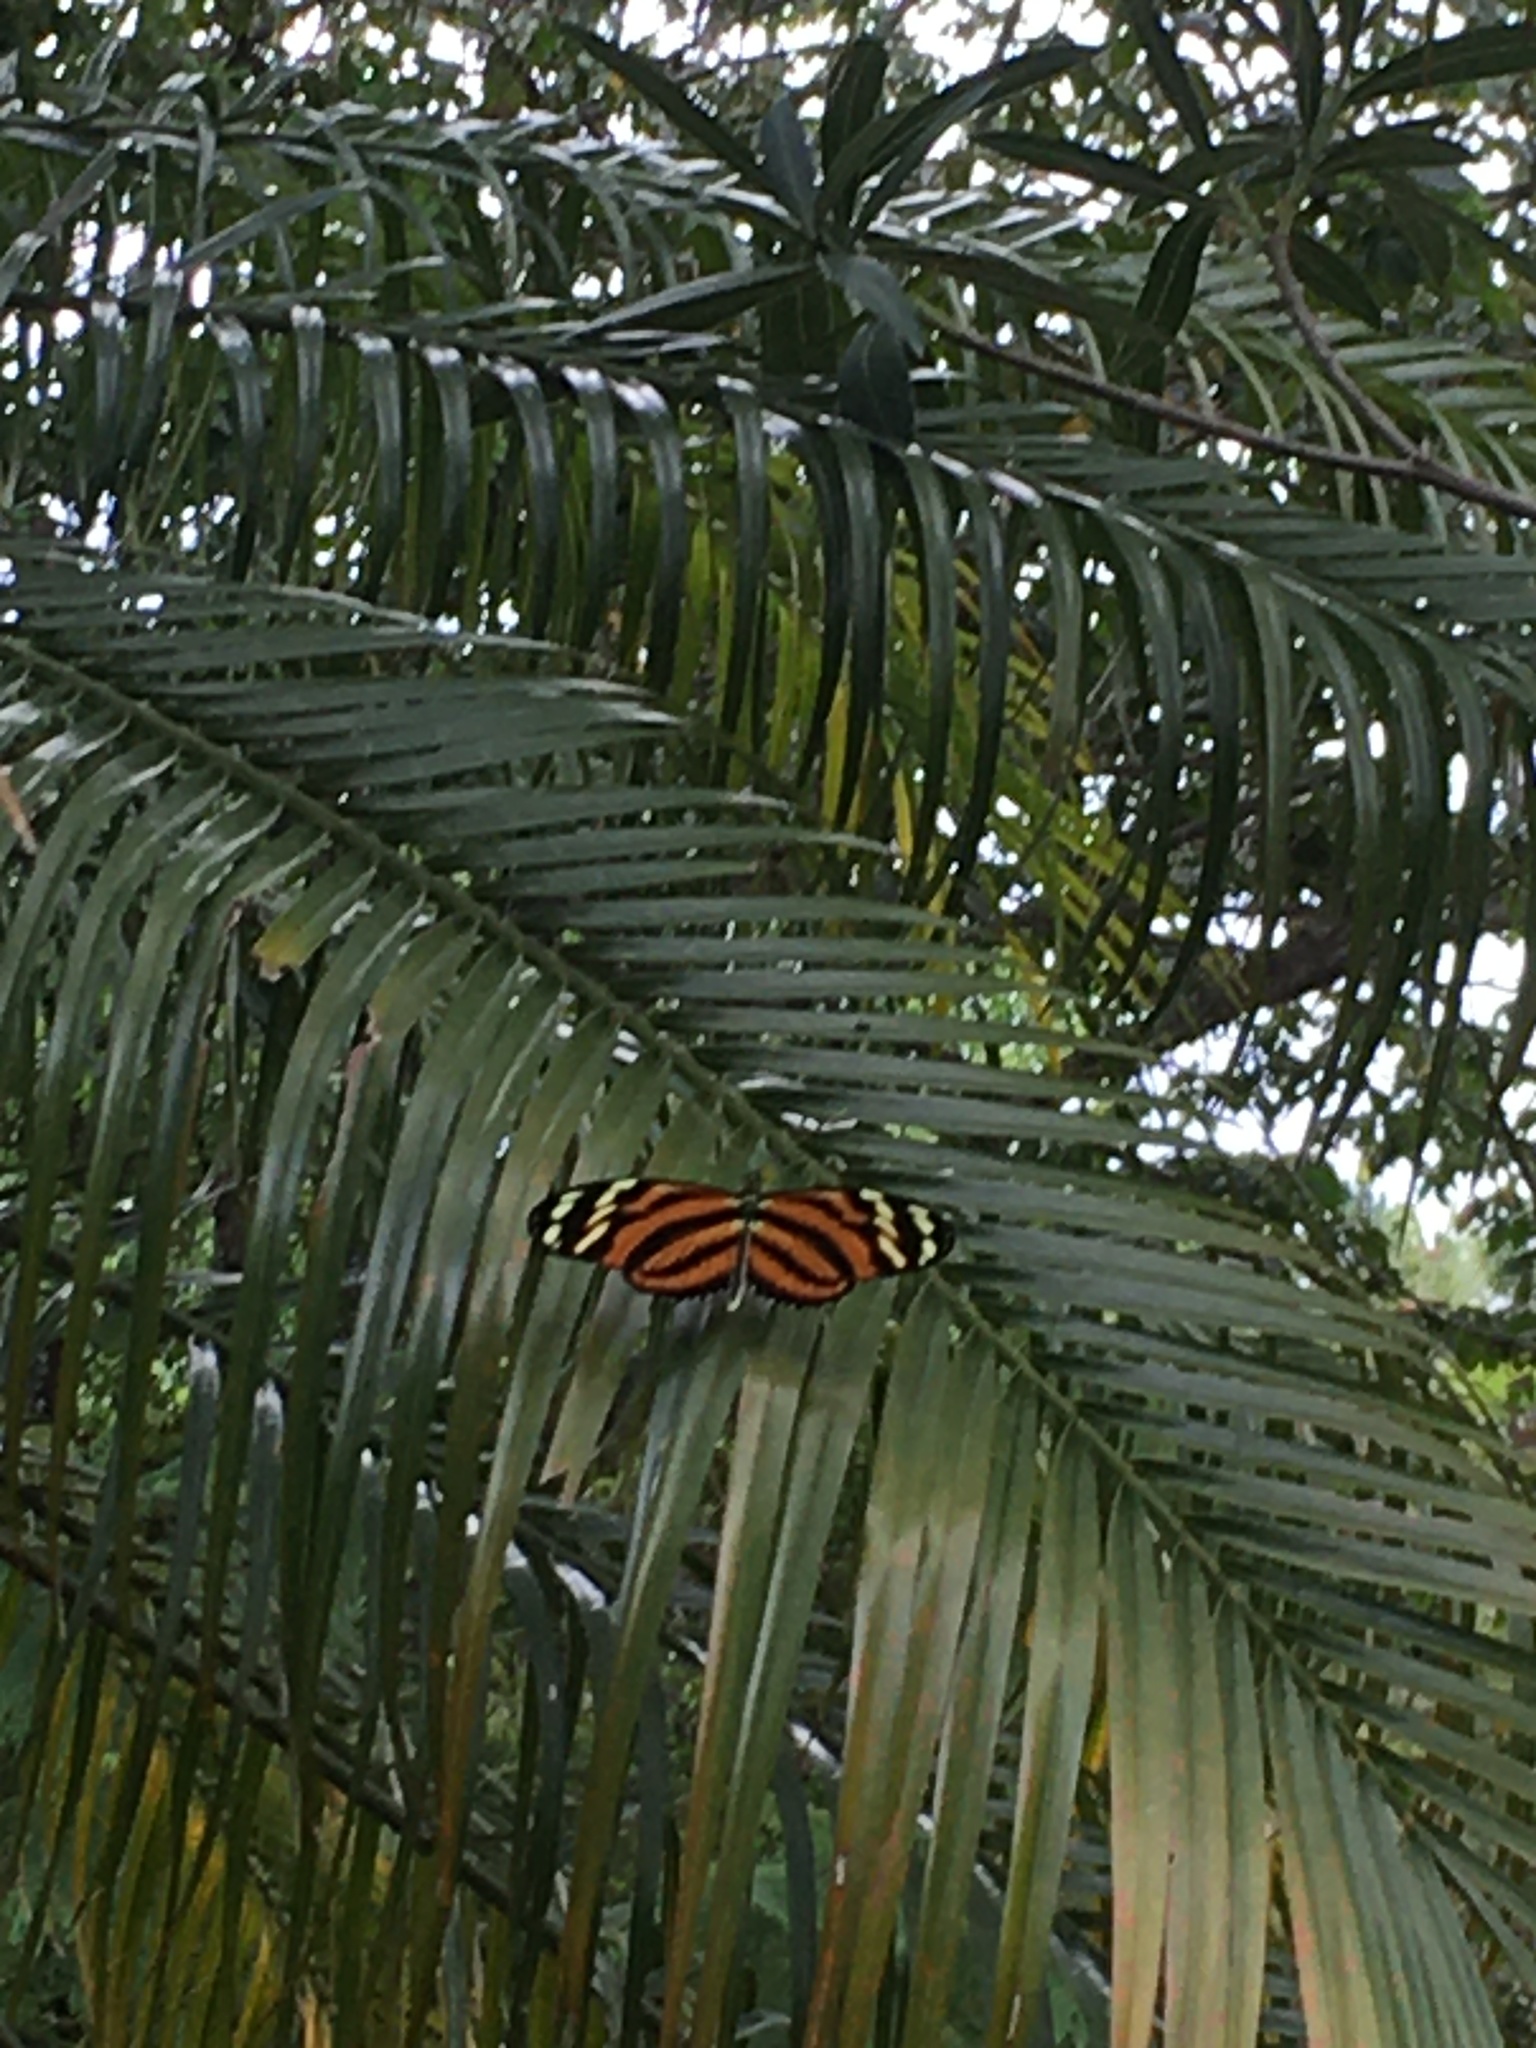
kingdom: Animalia
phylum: Arthropoda
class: Insecta
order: Lepidoptera
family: Nymphalidae
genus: Heliconius
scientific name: Heliconius ismenius
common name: Ismenius tiger
